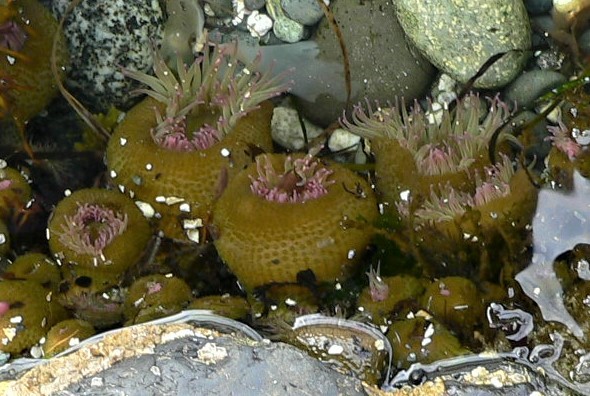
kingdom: Animalia
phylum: Cnidaria
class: Anthozoa
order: Actiniaria
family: Actiniidae
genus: Anthopleura
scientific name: Anthopleura elegantissima
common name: Clonal anemone
